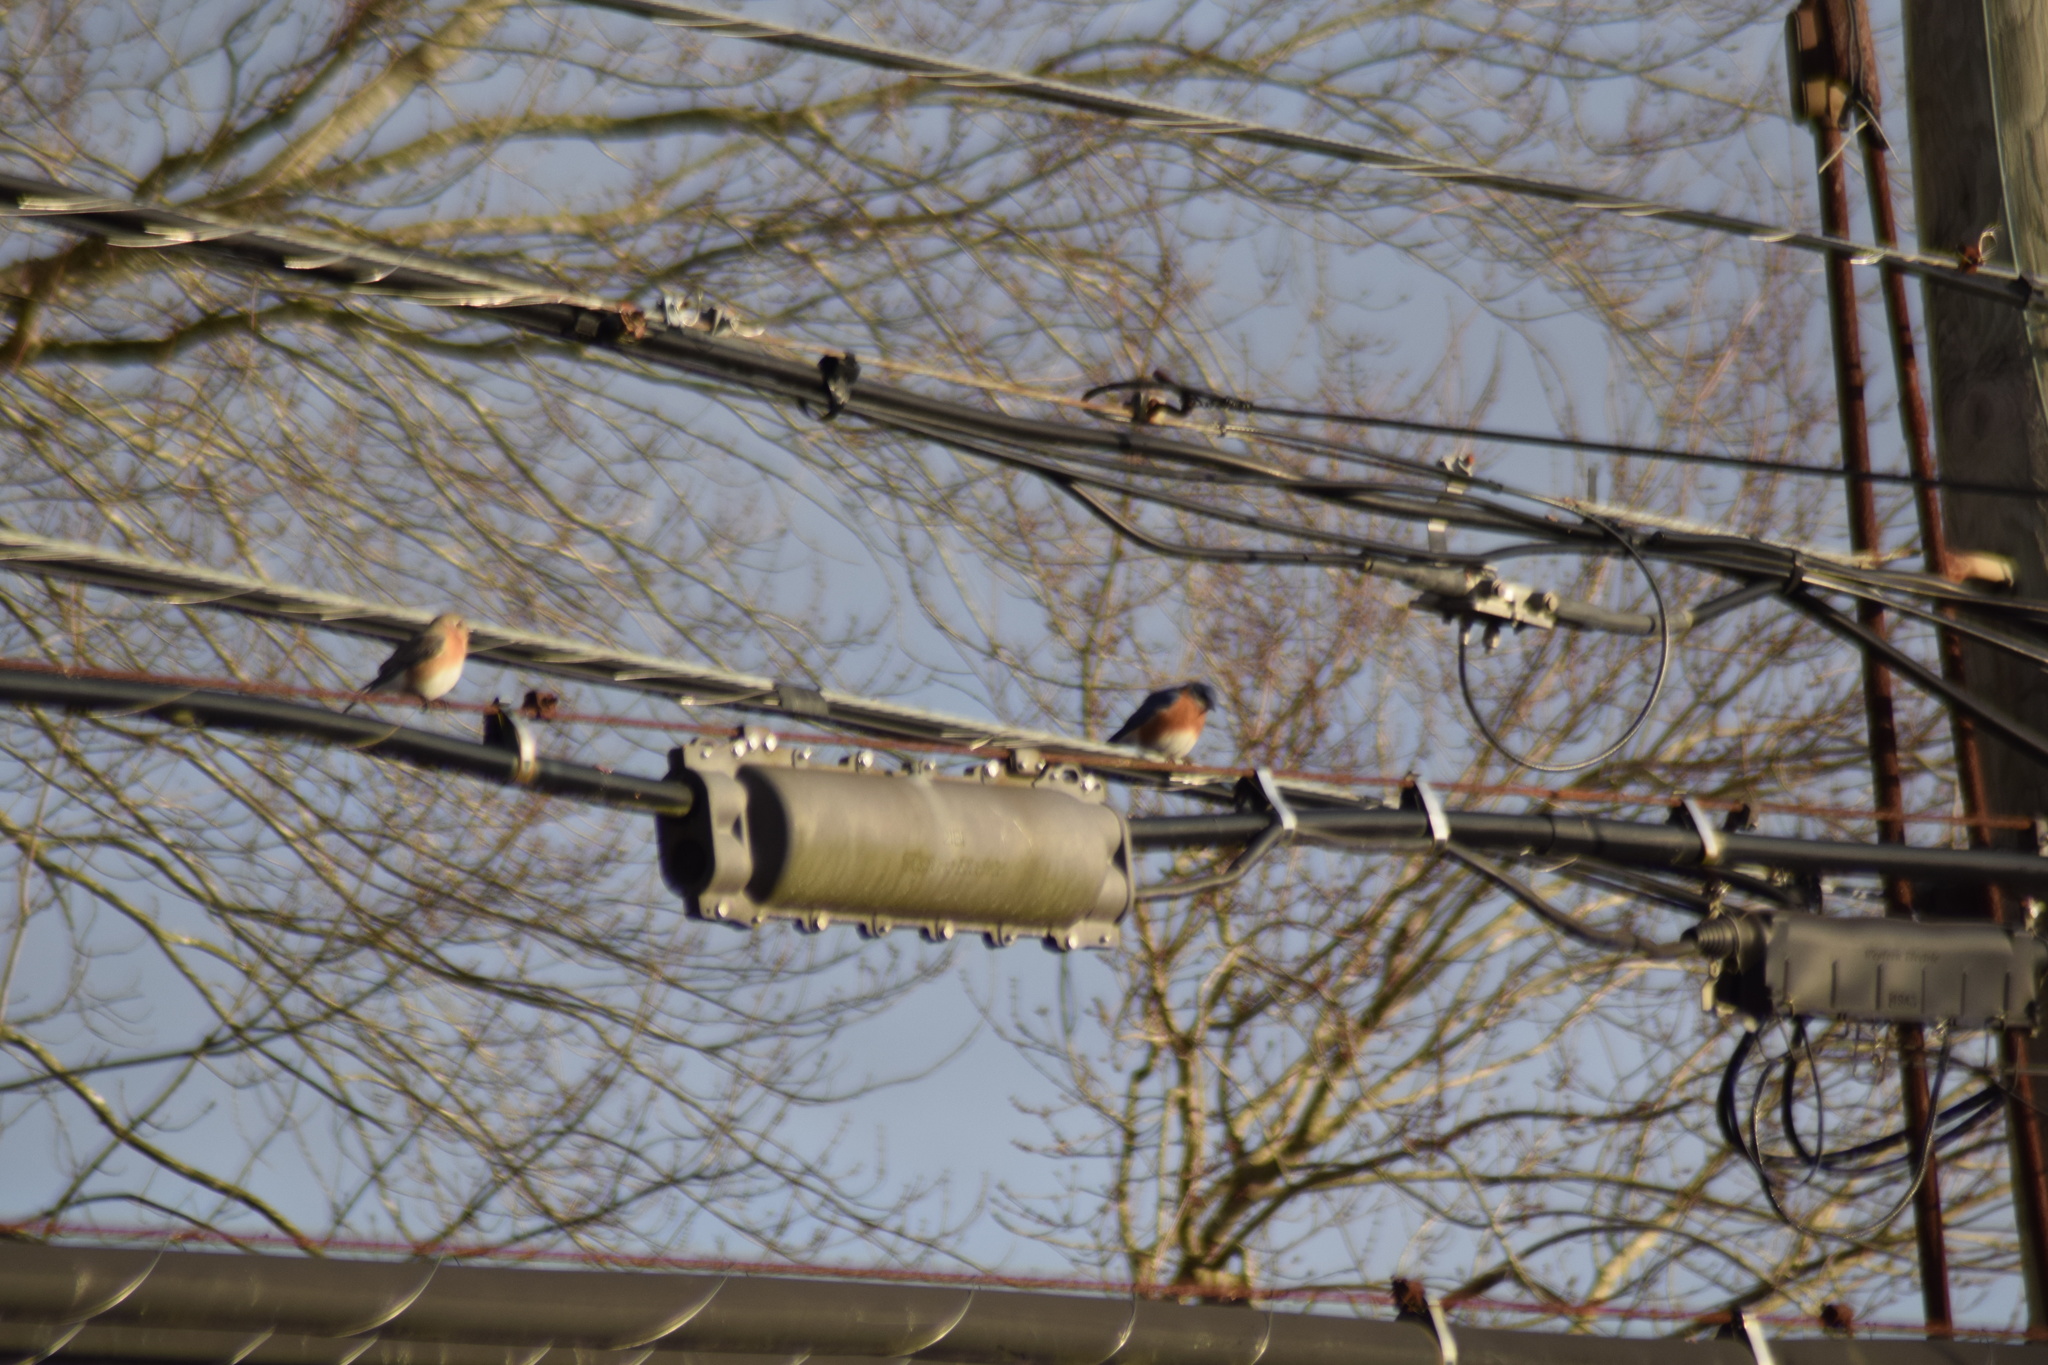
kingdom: Animalia
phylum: Chordata
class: Aves
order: Passeriformes
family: Turdidae
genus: Sialia
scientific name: Sialia sialis
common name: Eastern bluebird
